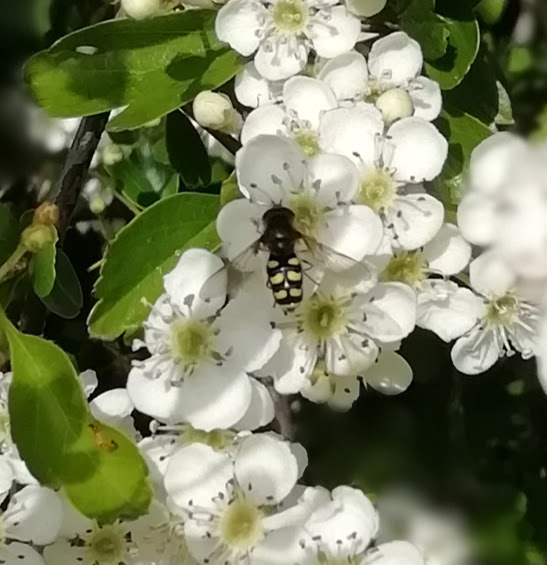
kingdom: Animalia
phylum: Arthropoda
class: Insecta
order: Diptera
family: Syrphidae
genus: Eupeodes
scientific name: Eupeodes
